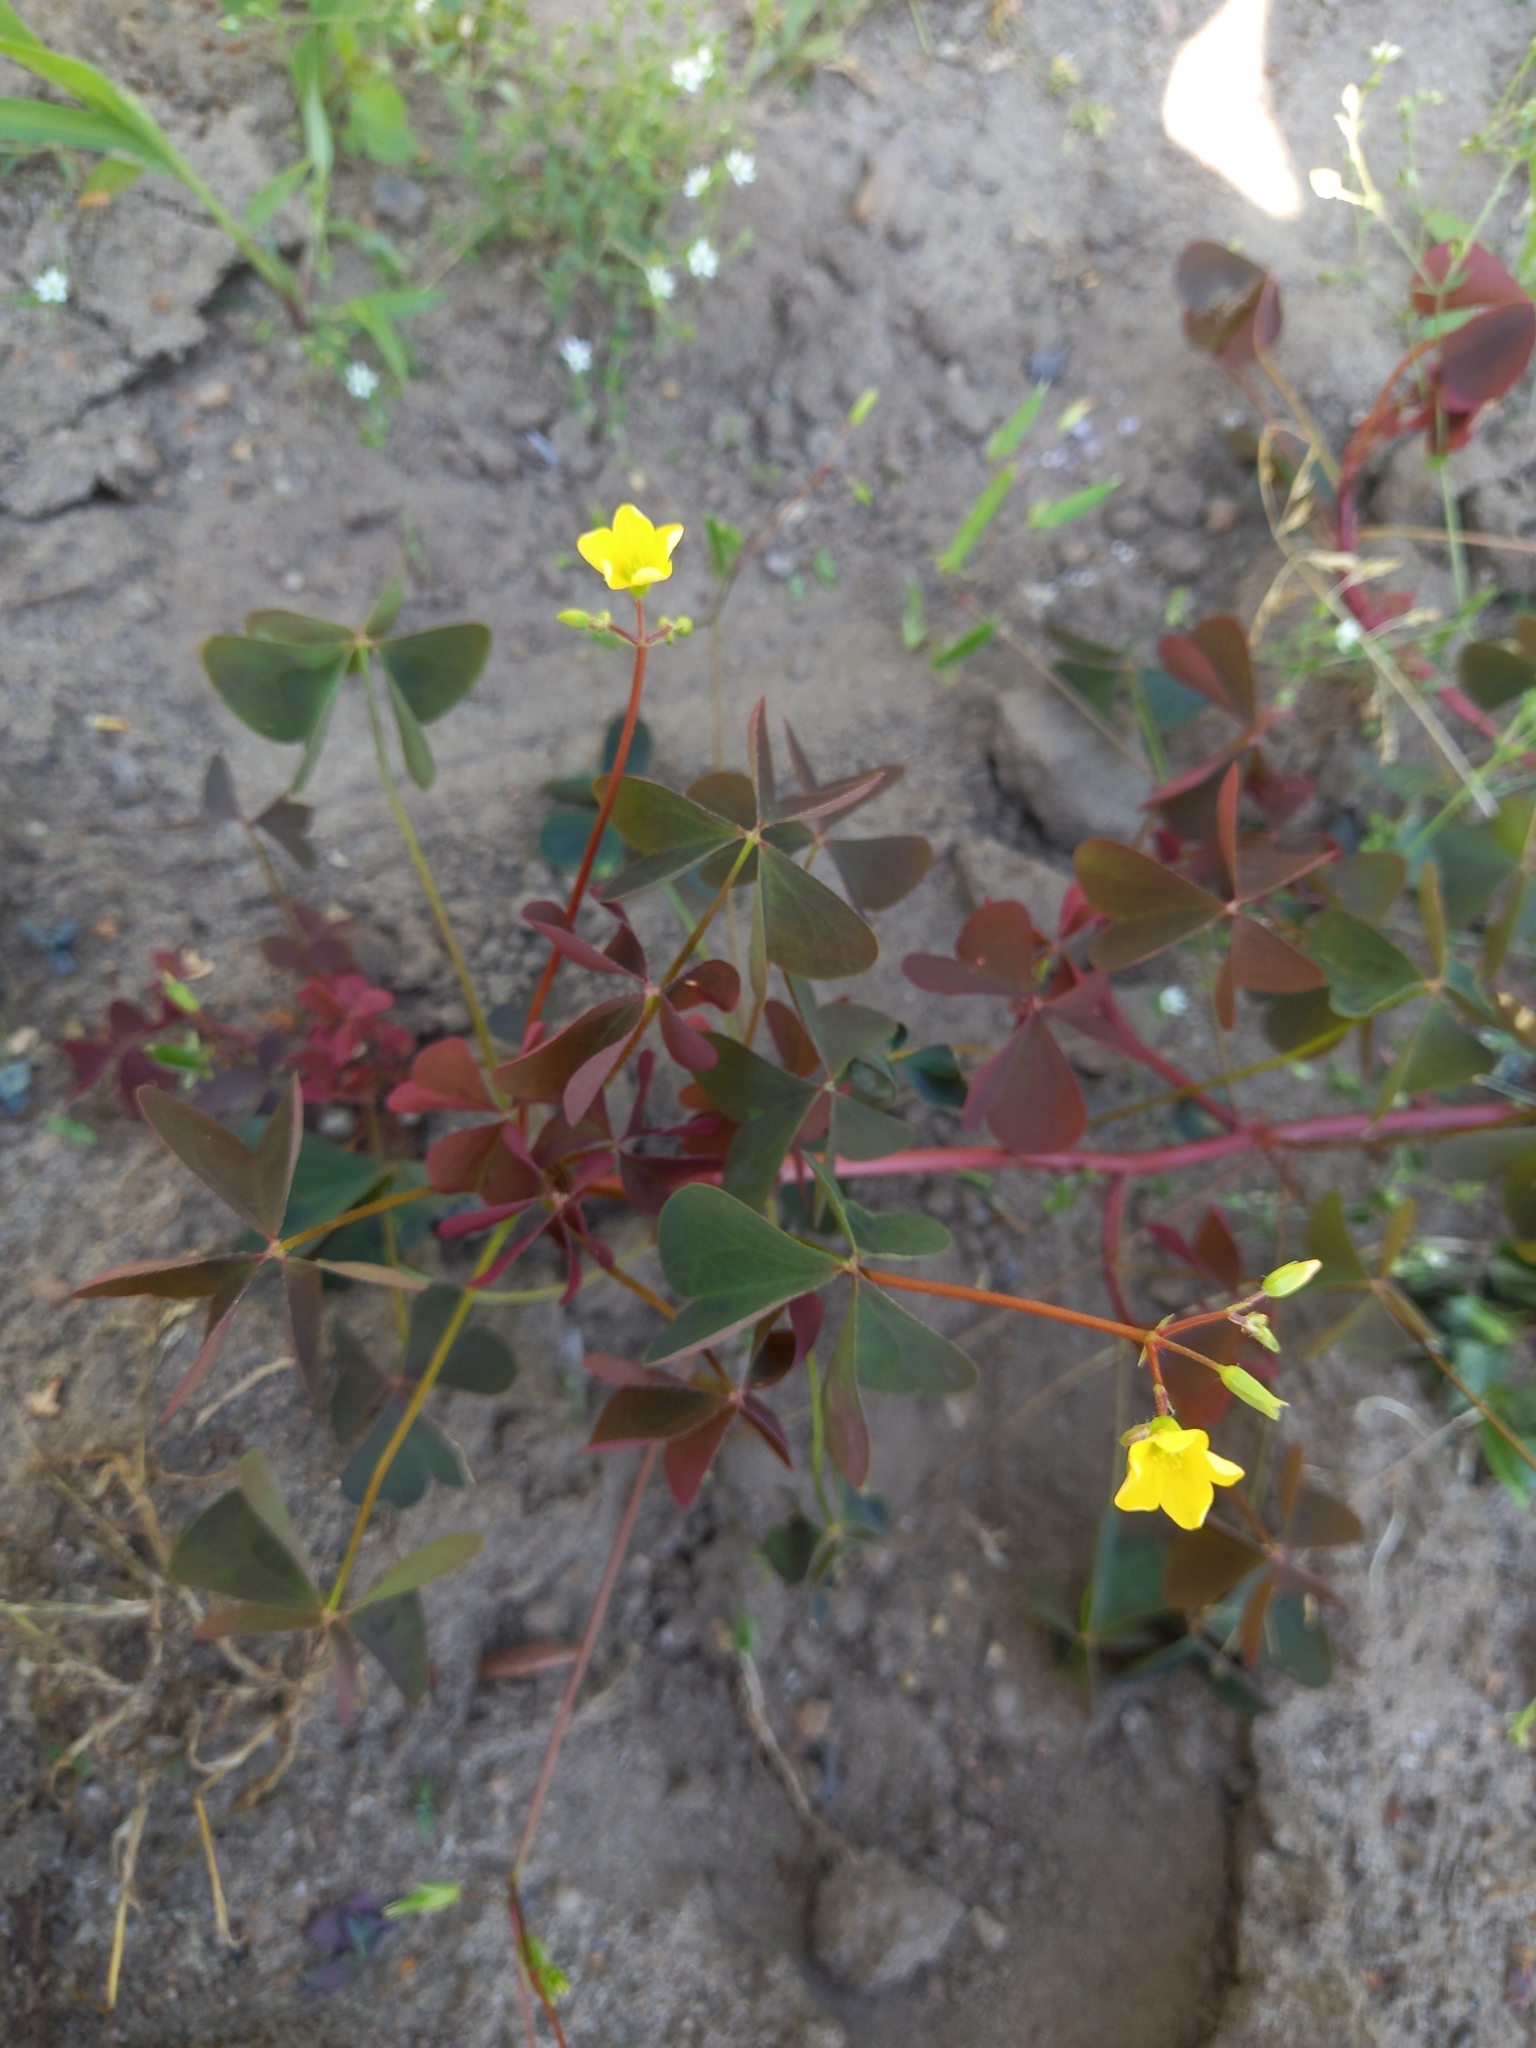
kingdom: Plantae
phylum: Tracheophyta
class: Magnoliopsida
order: Oxalidales
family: Oxalidaceae
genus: Oxalis
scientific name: Oxalis stricta
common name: Upright yellow-sorrel
